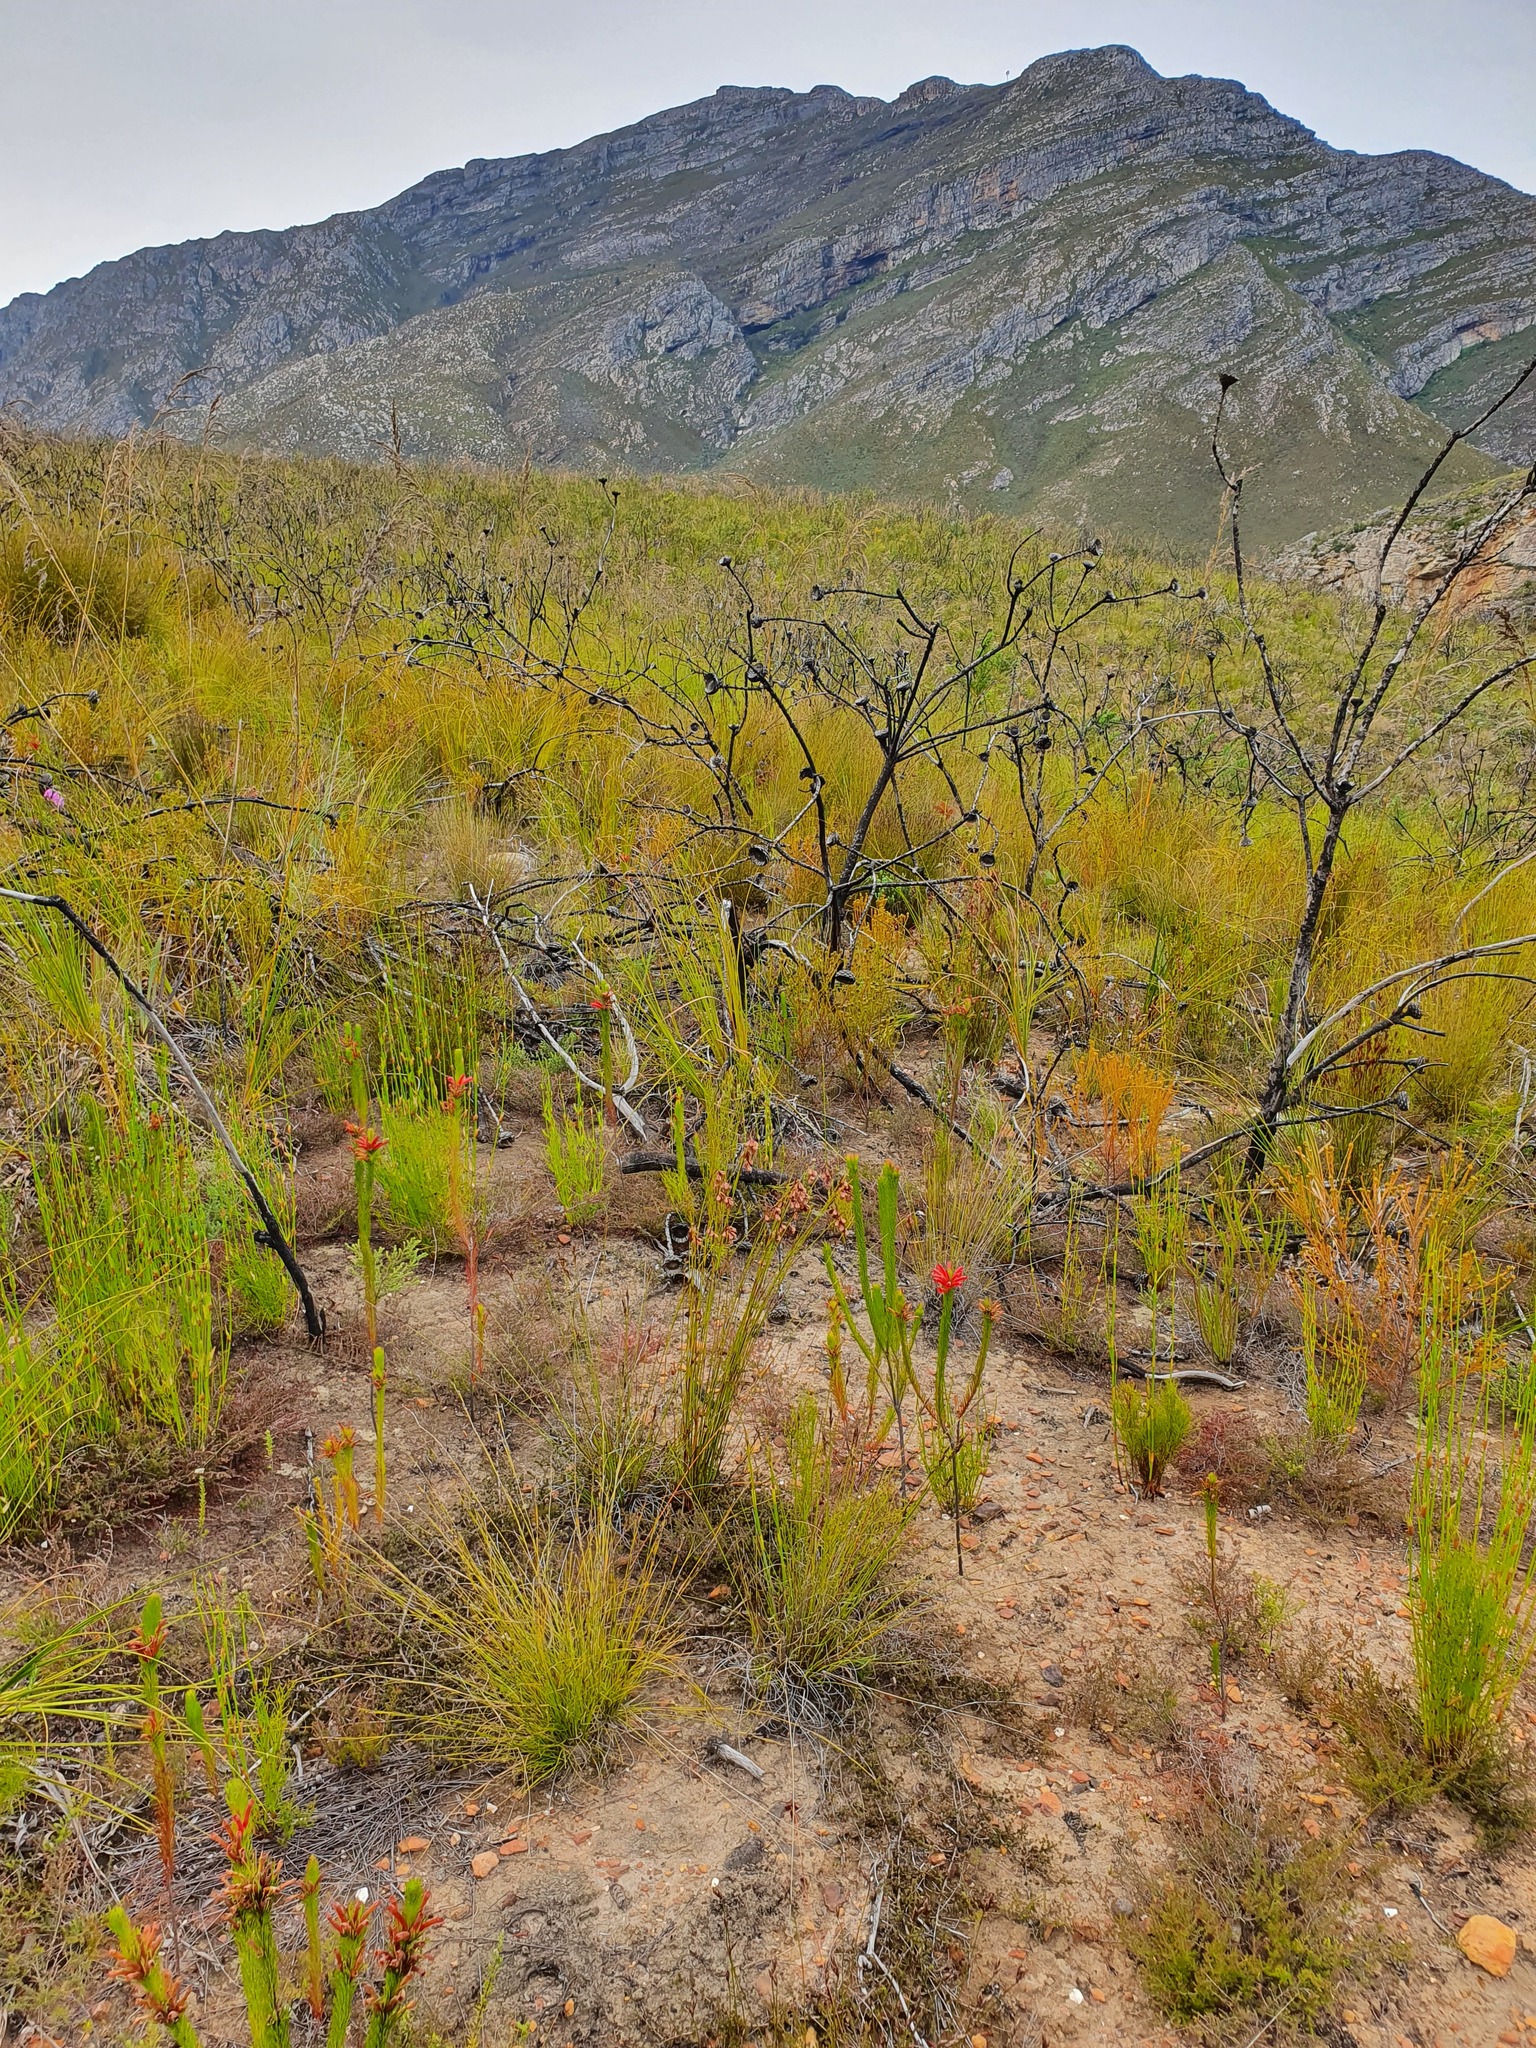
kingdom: Plantae
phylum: Tracheophyta
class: Magnoliopsida
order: Ericales
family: Ericaceae
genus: Erica
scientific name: Erica vestita
